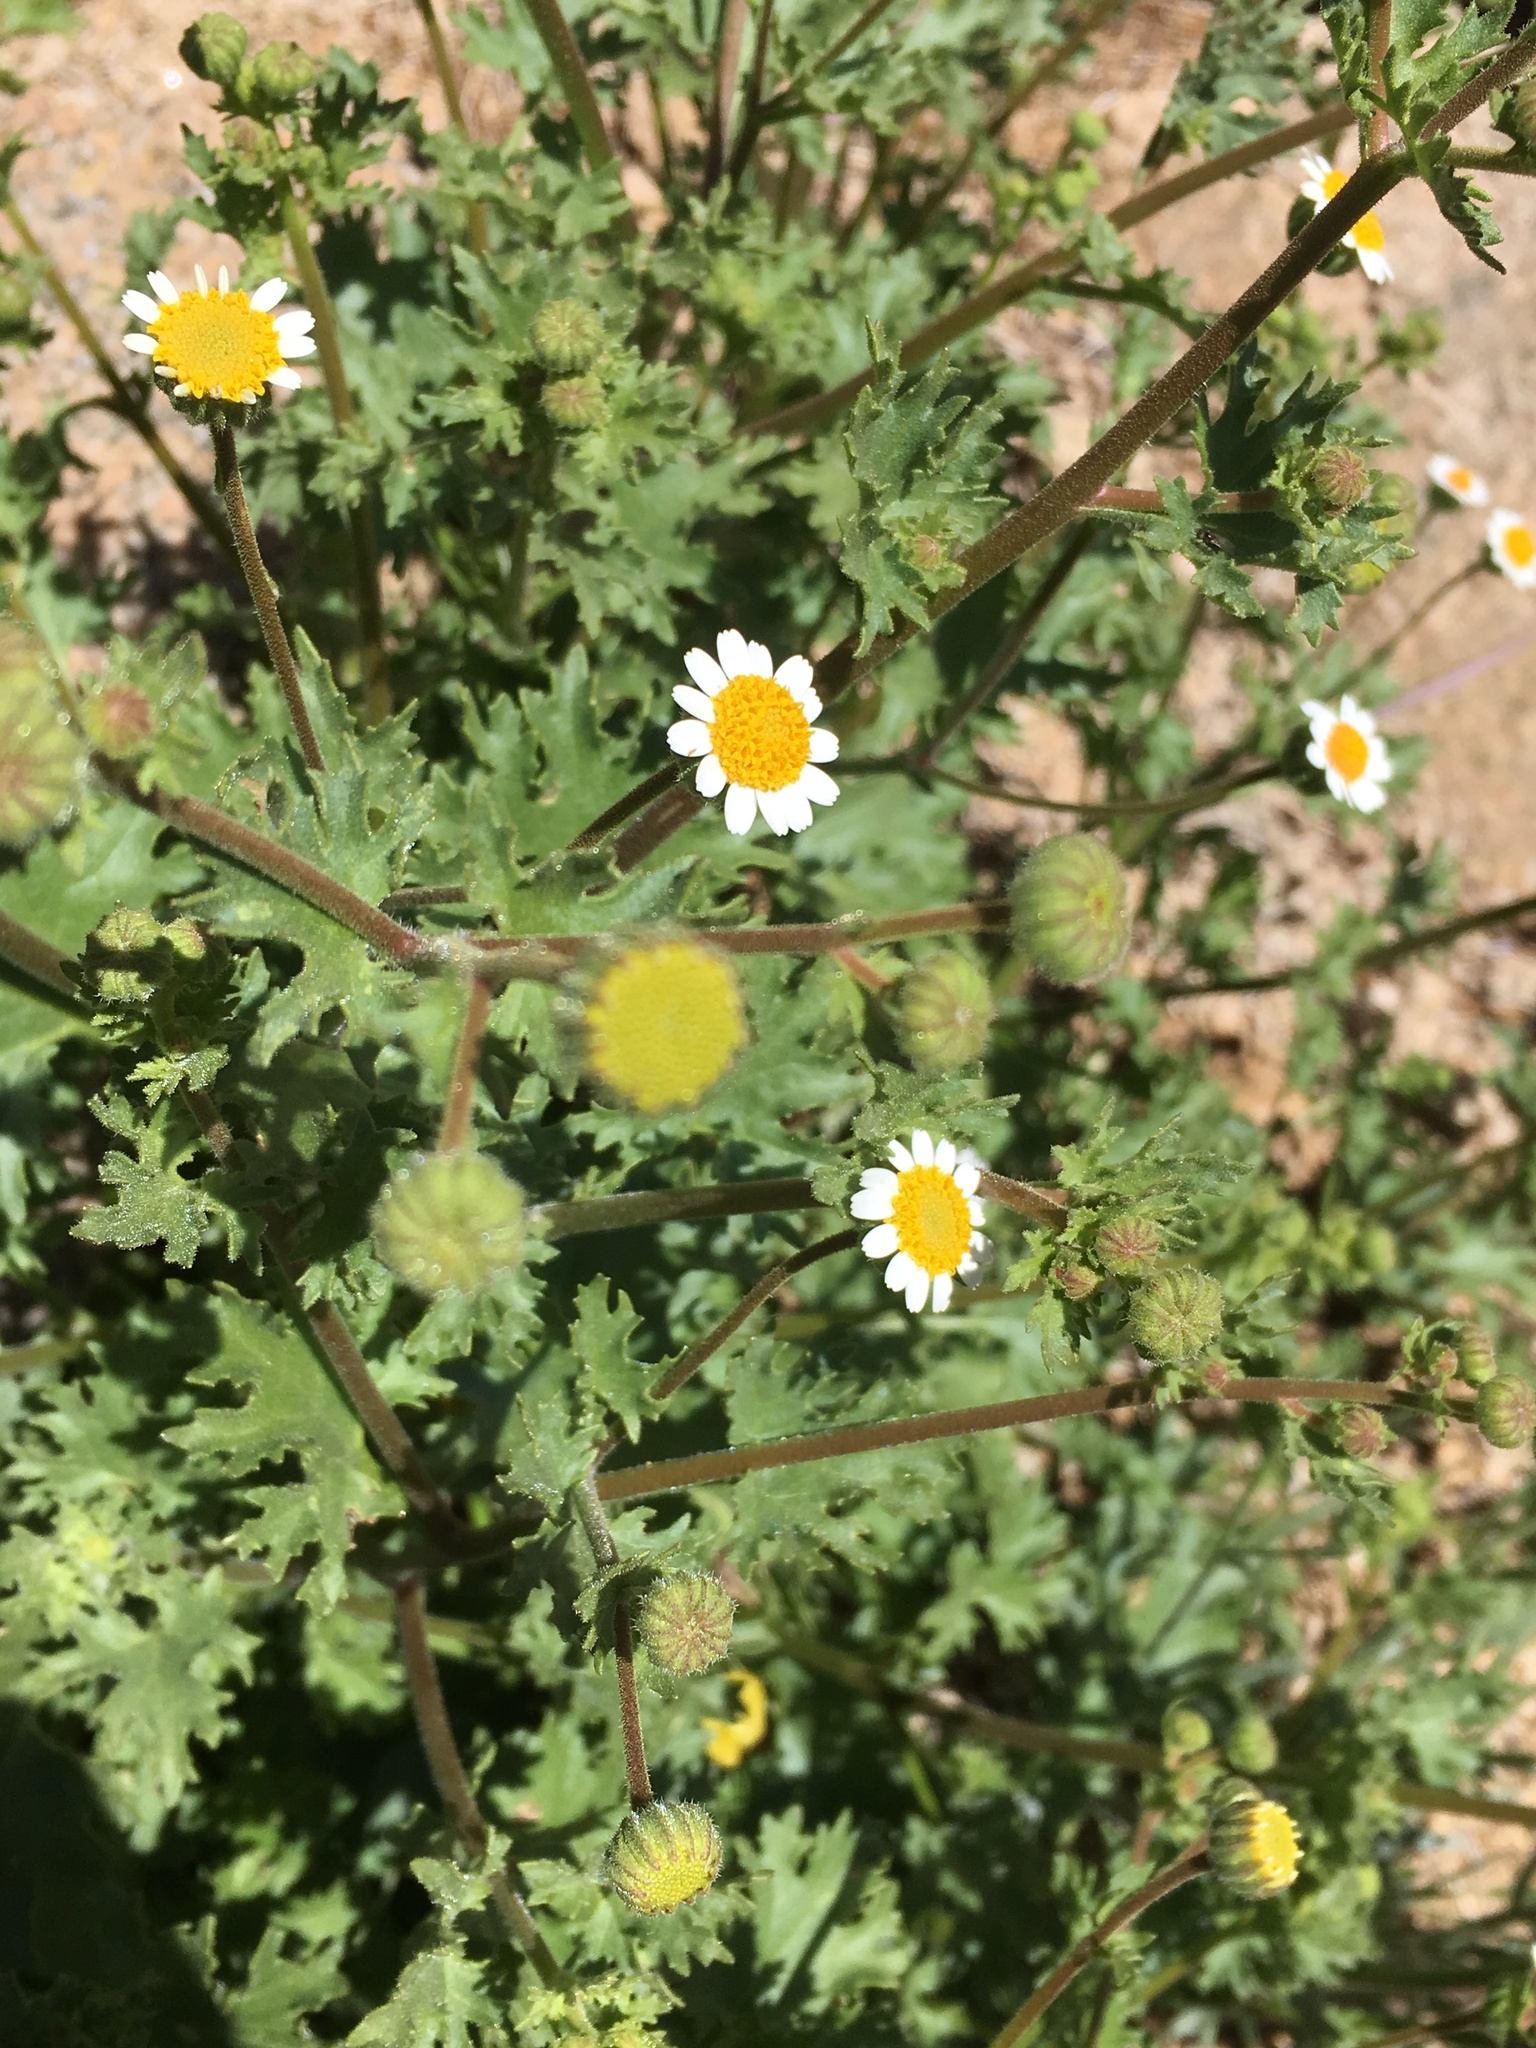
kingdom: Plantae
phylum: Tracheophyta
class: Magnoliopsida
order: Asterales
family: Asteraceae
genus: Laphamia
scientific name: Laphamia emoryi
